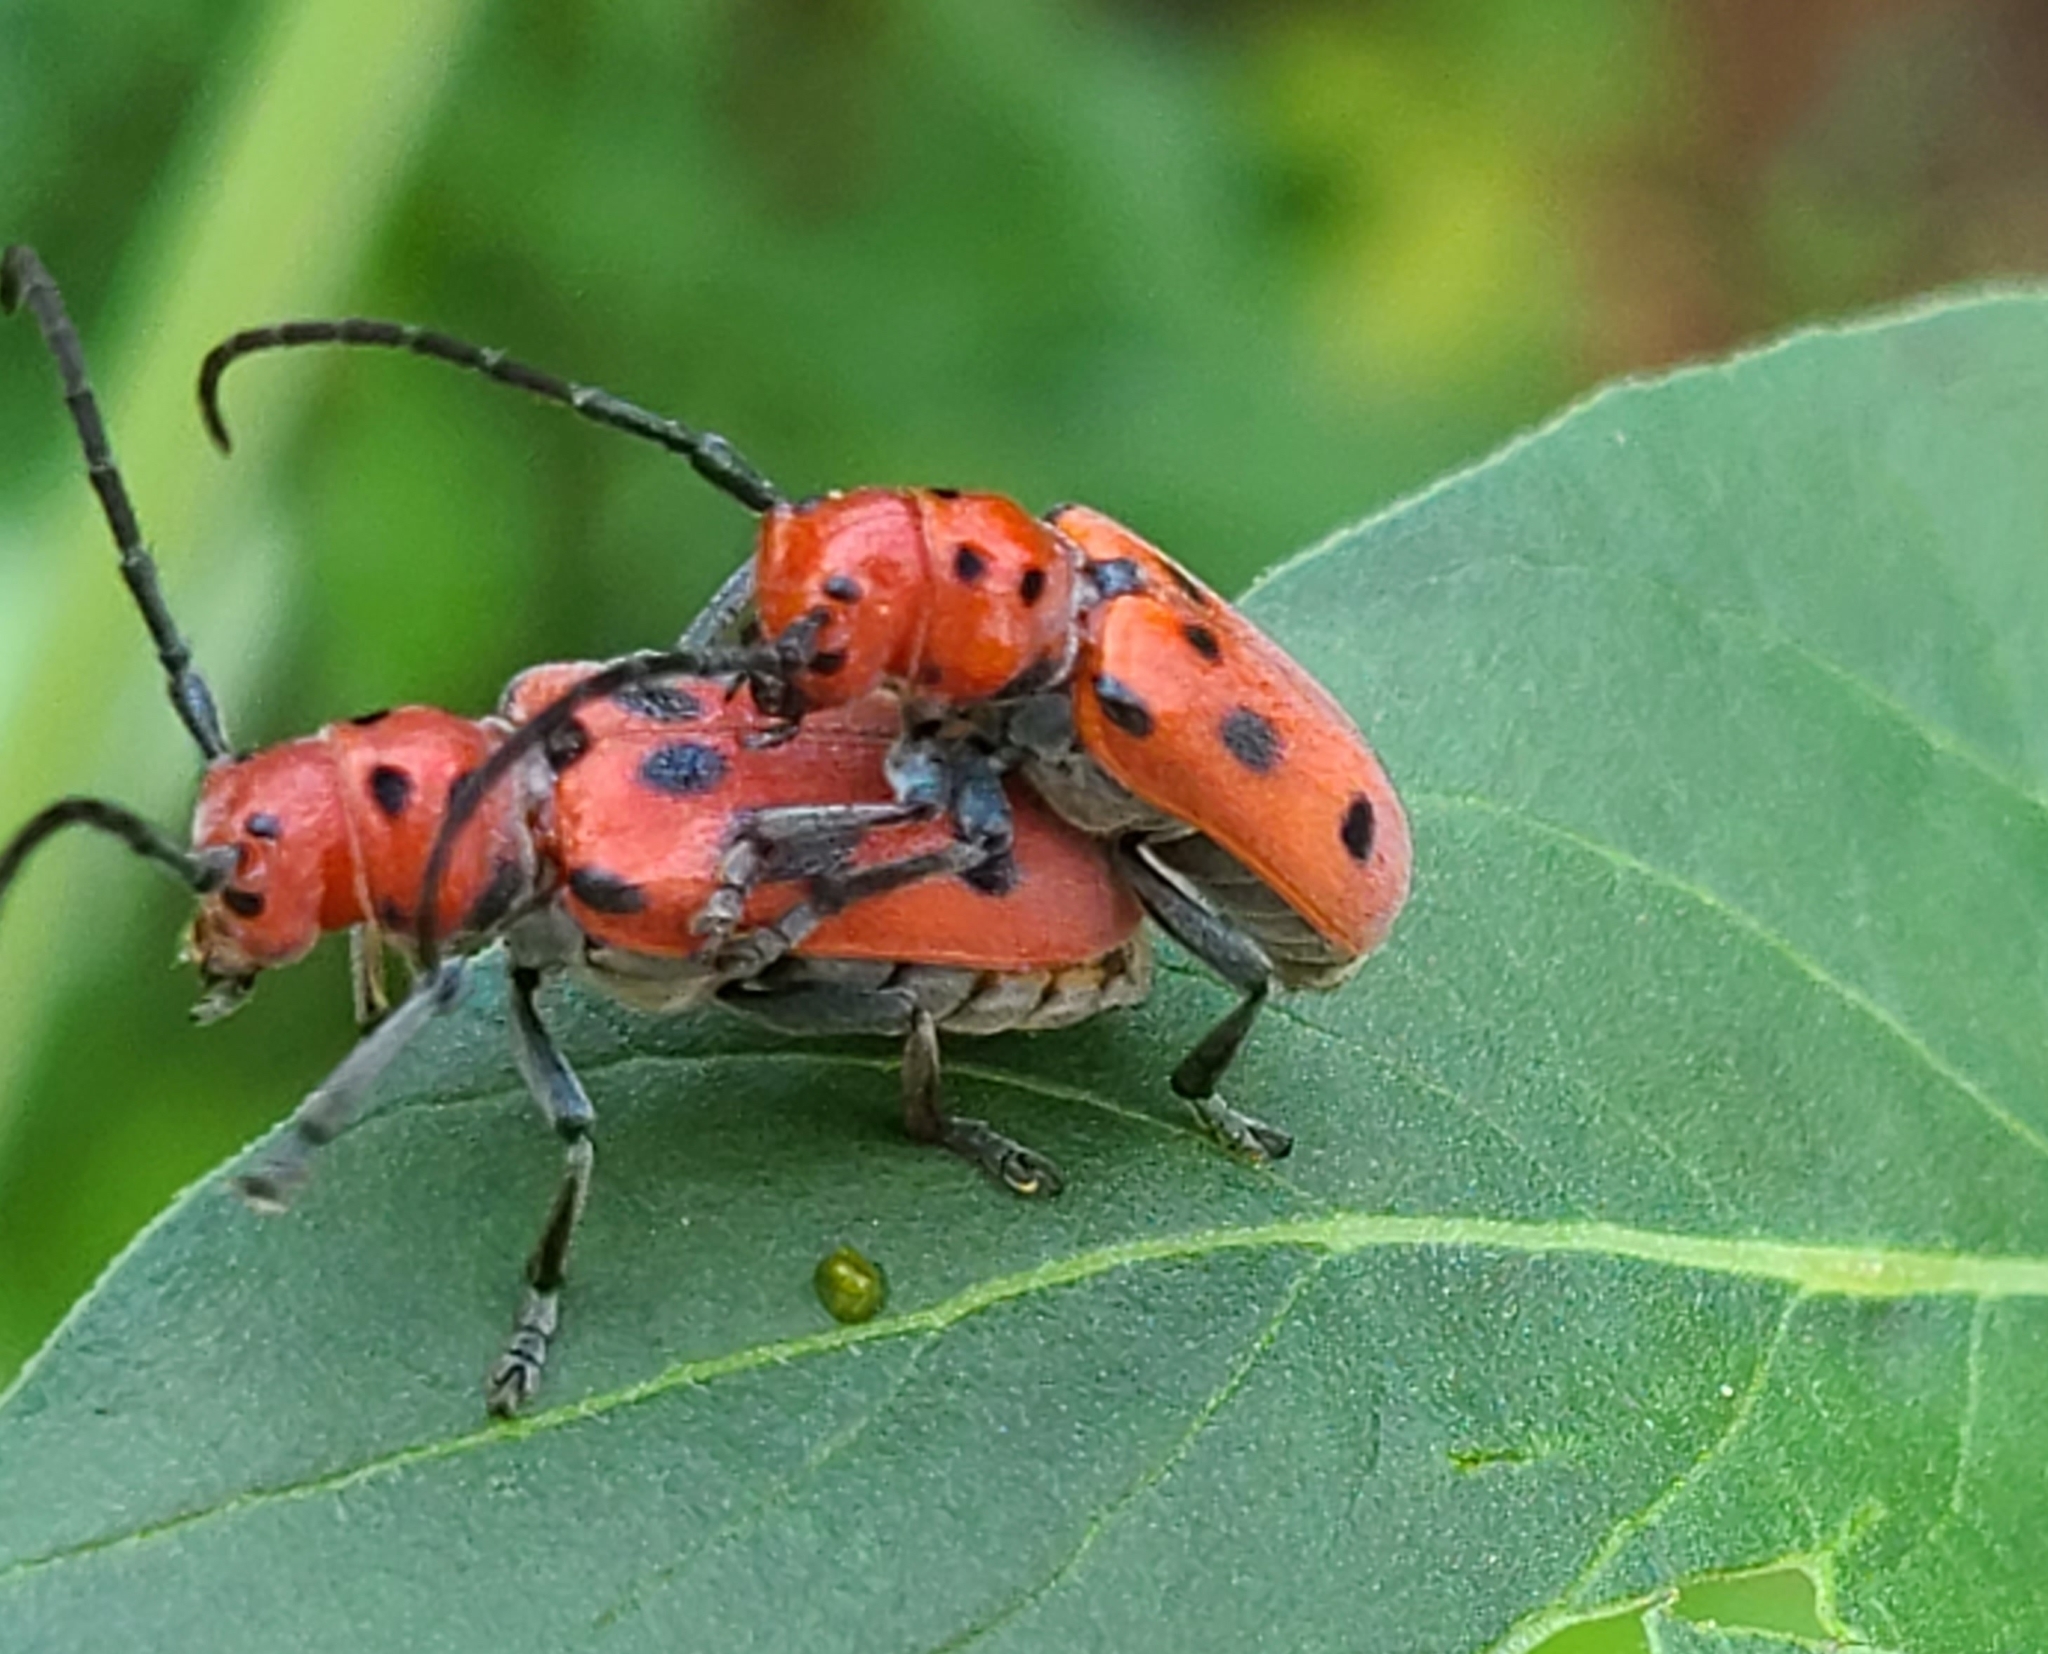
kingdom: Animalia
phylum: Arthropoda
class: Insecta
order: Coleoptera
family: Cerambycidae
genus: Tetraopes
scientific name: Tetraopes tetrophthalmus
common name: Red milkweed beetle
